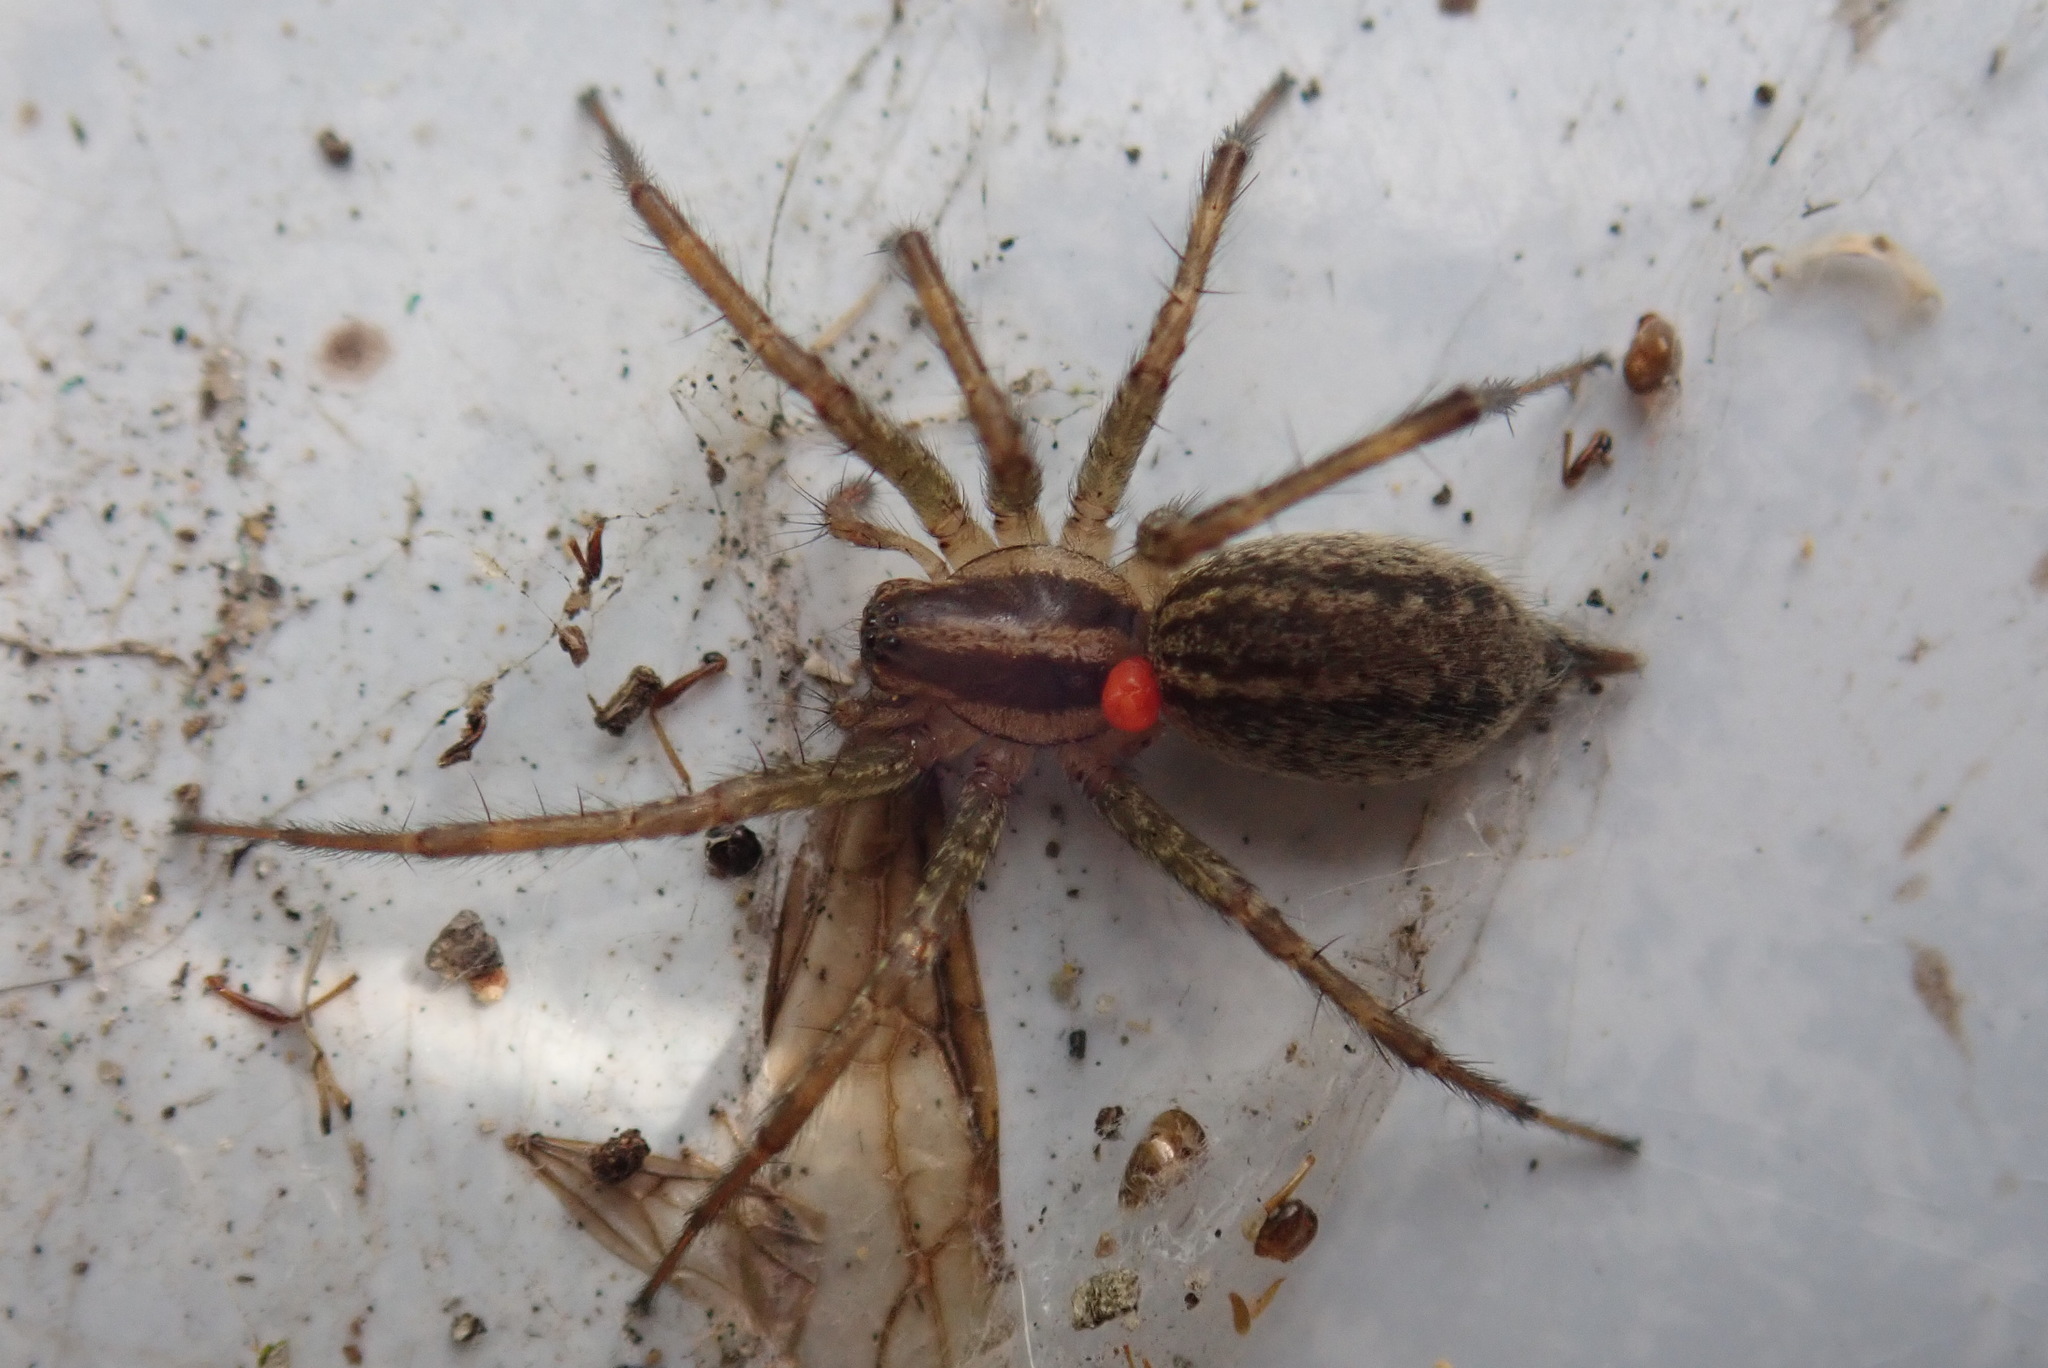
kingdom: Animalia
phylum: Arthropoda
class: Arachnida
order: Araneae
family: Agelenidae
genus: Agelenopsis
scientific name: Agelenopsis
